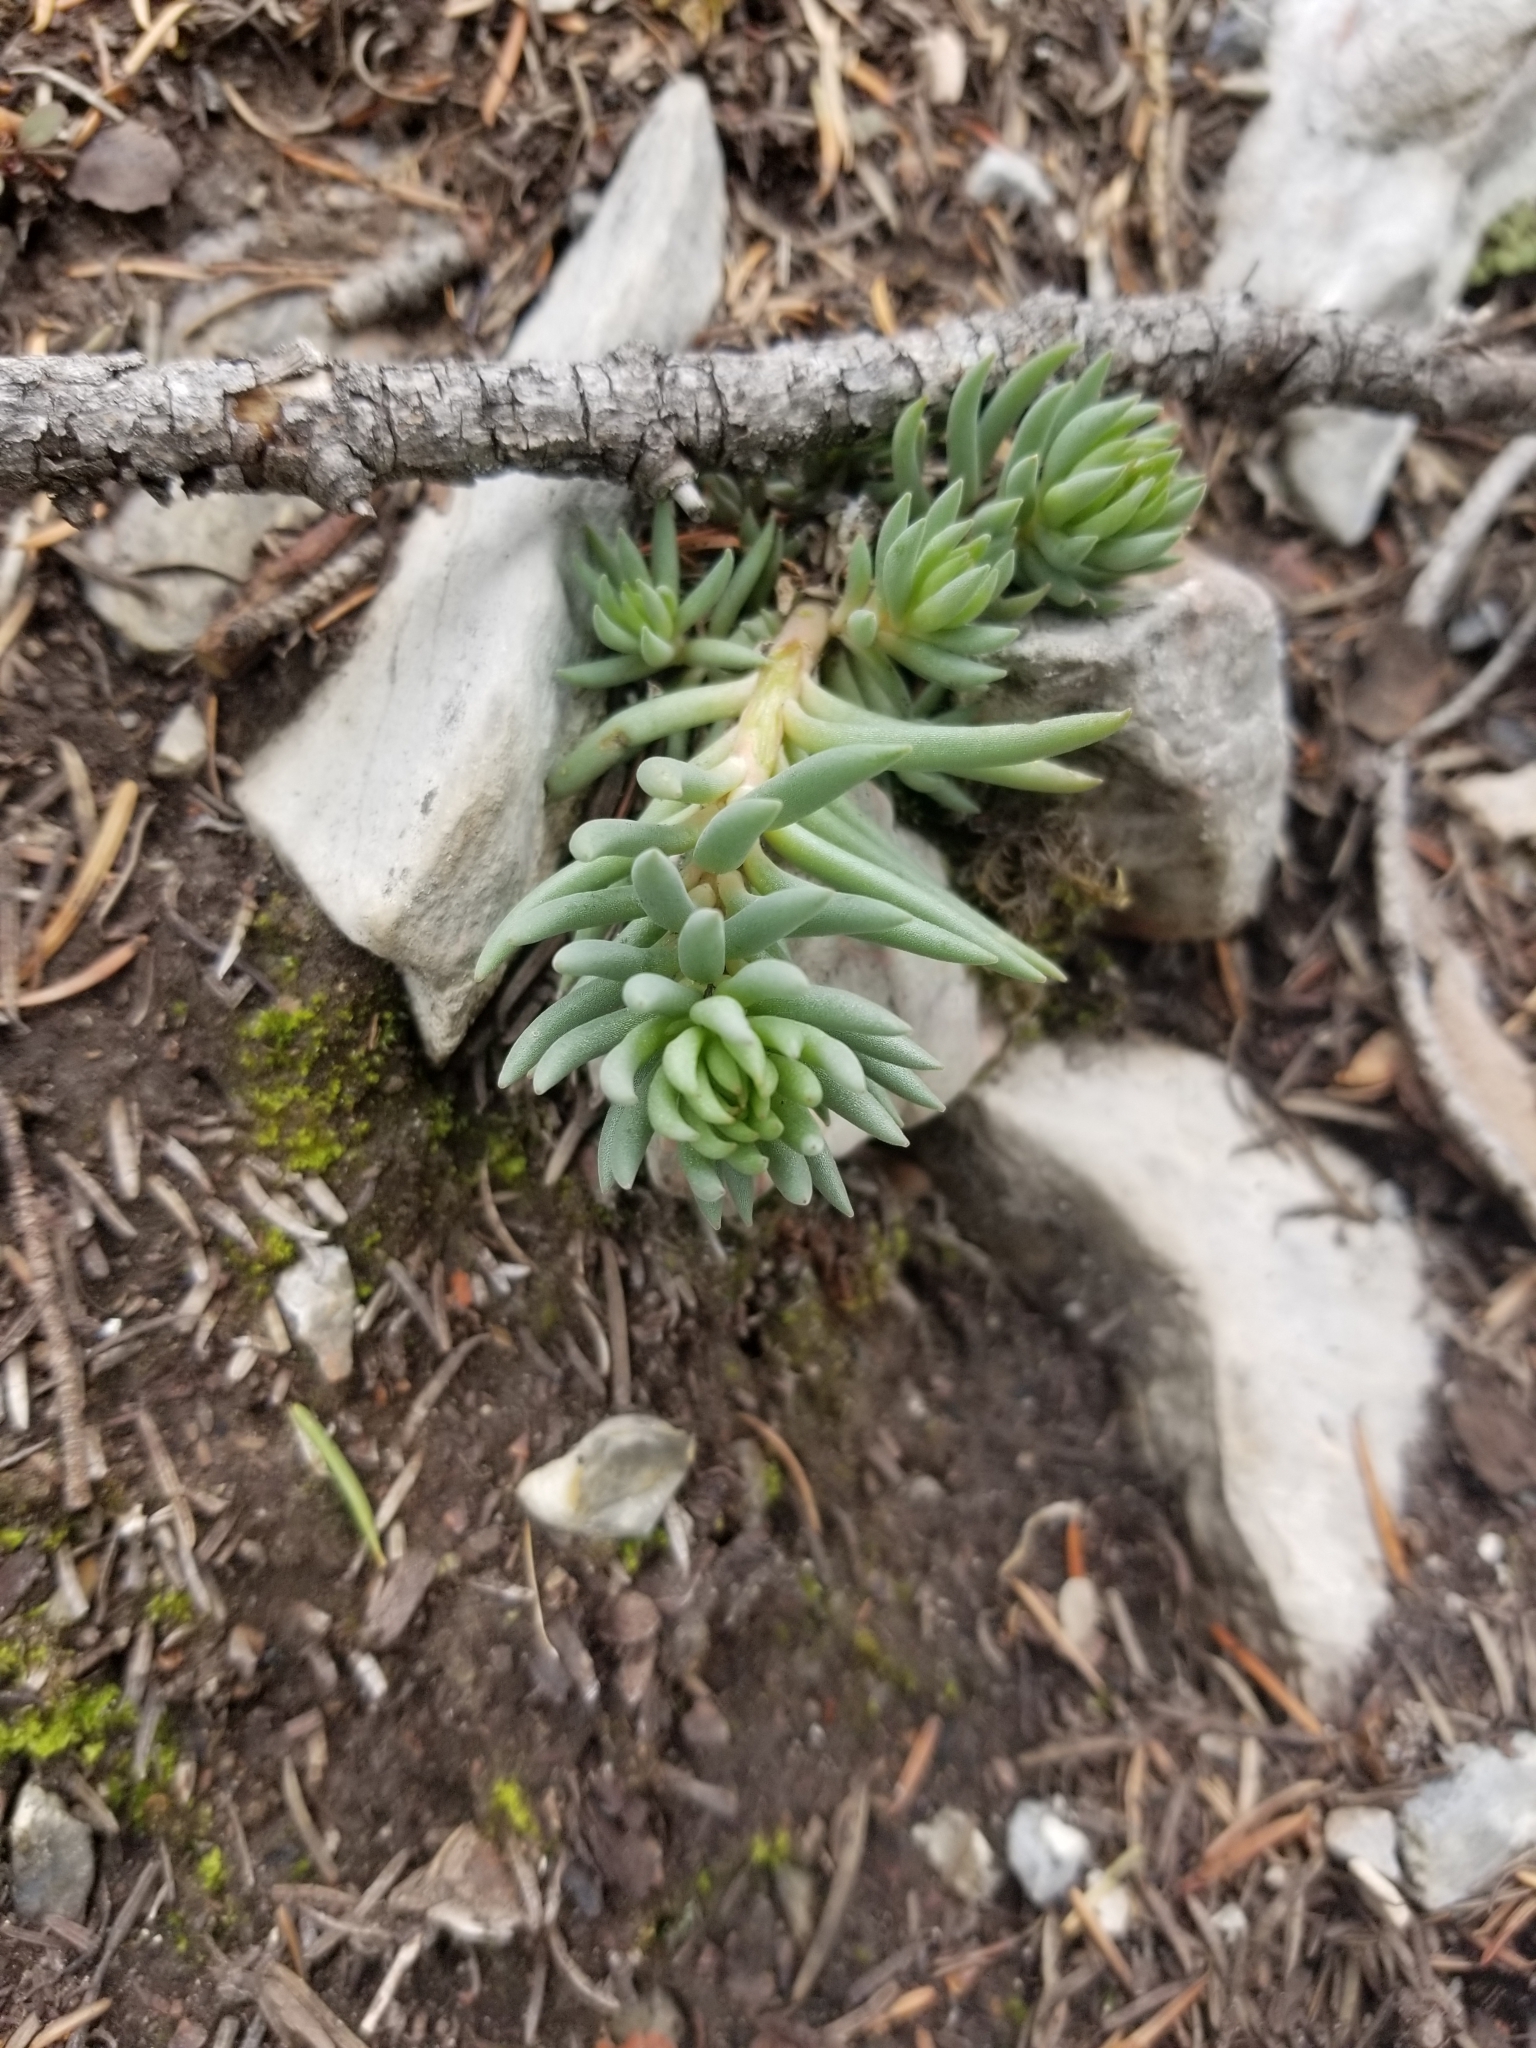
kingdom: Plantae
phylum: Tracheophyta
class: Magnoliopsida
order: Saxifragales
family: Crassulaceae
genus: Sedum
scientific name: Sedum lanceolatum
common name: Common stonecrop
